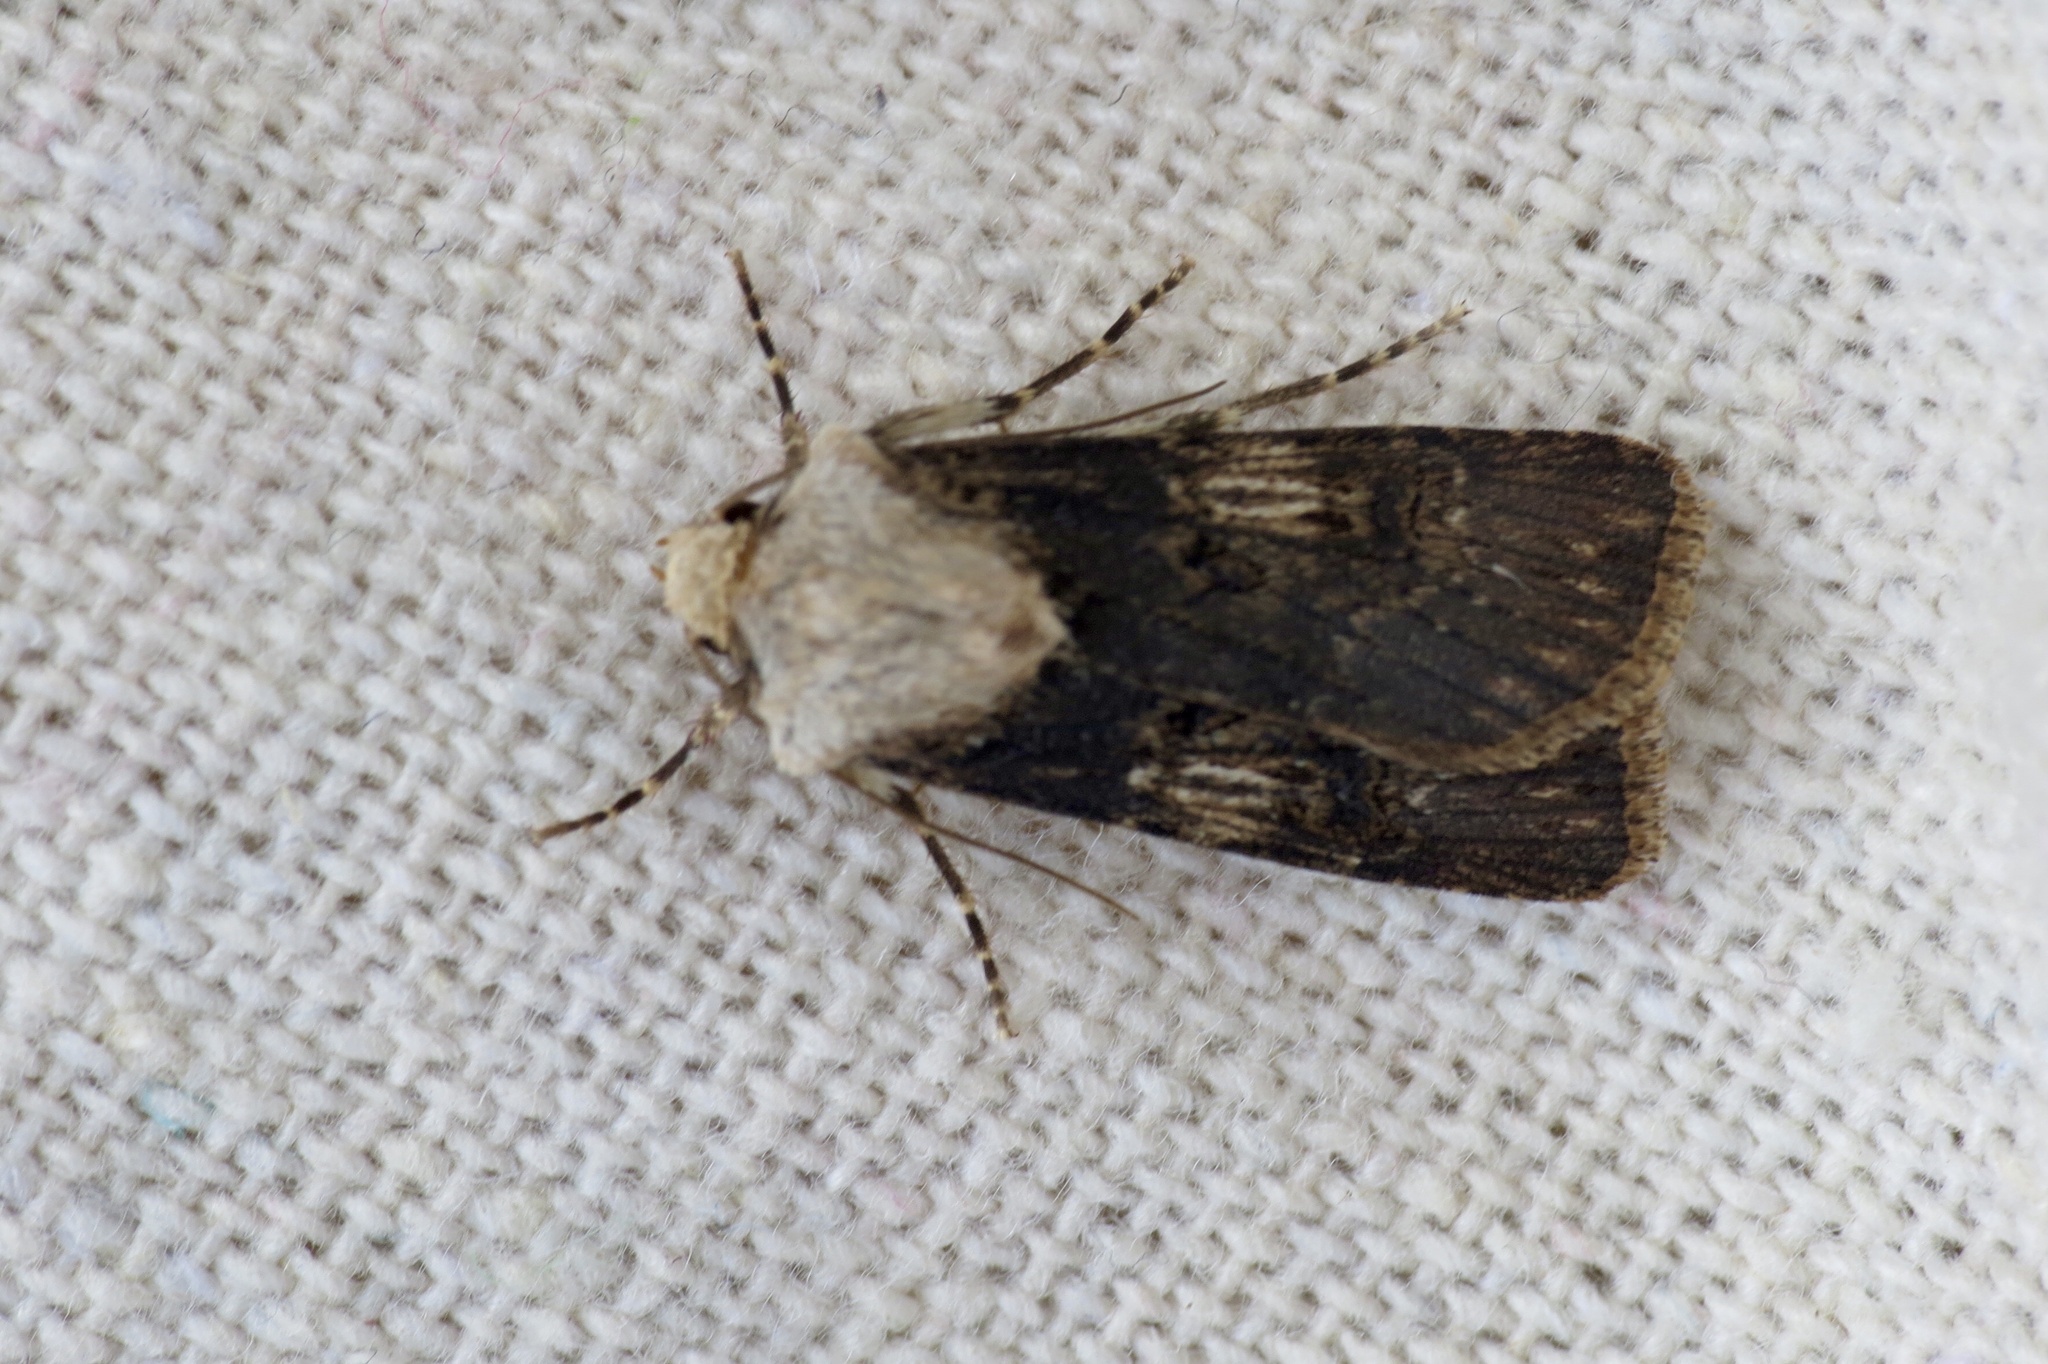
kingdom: Animalia
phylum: Arthropoda
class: Insecta
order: Lepidoptera
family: Noctuidae
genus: Agrotis
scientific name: Agrotis puta
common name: Shuttle-shaped dart
